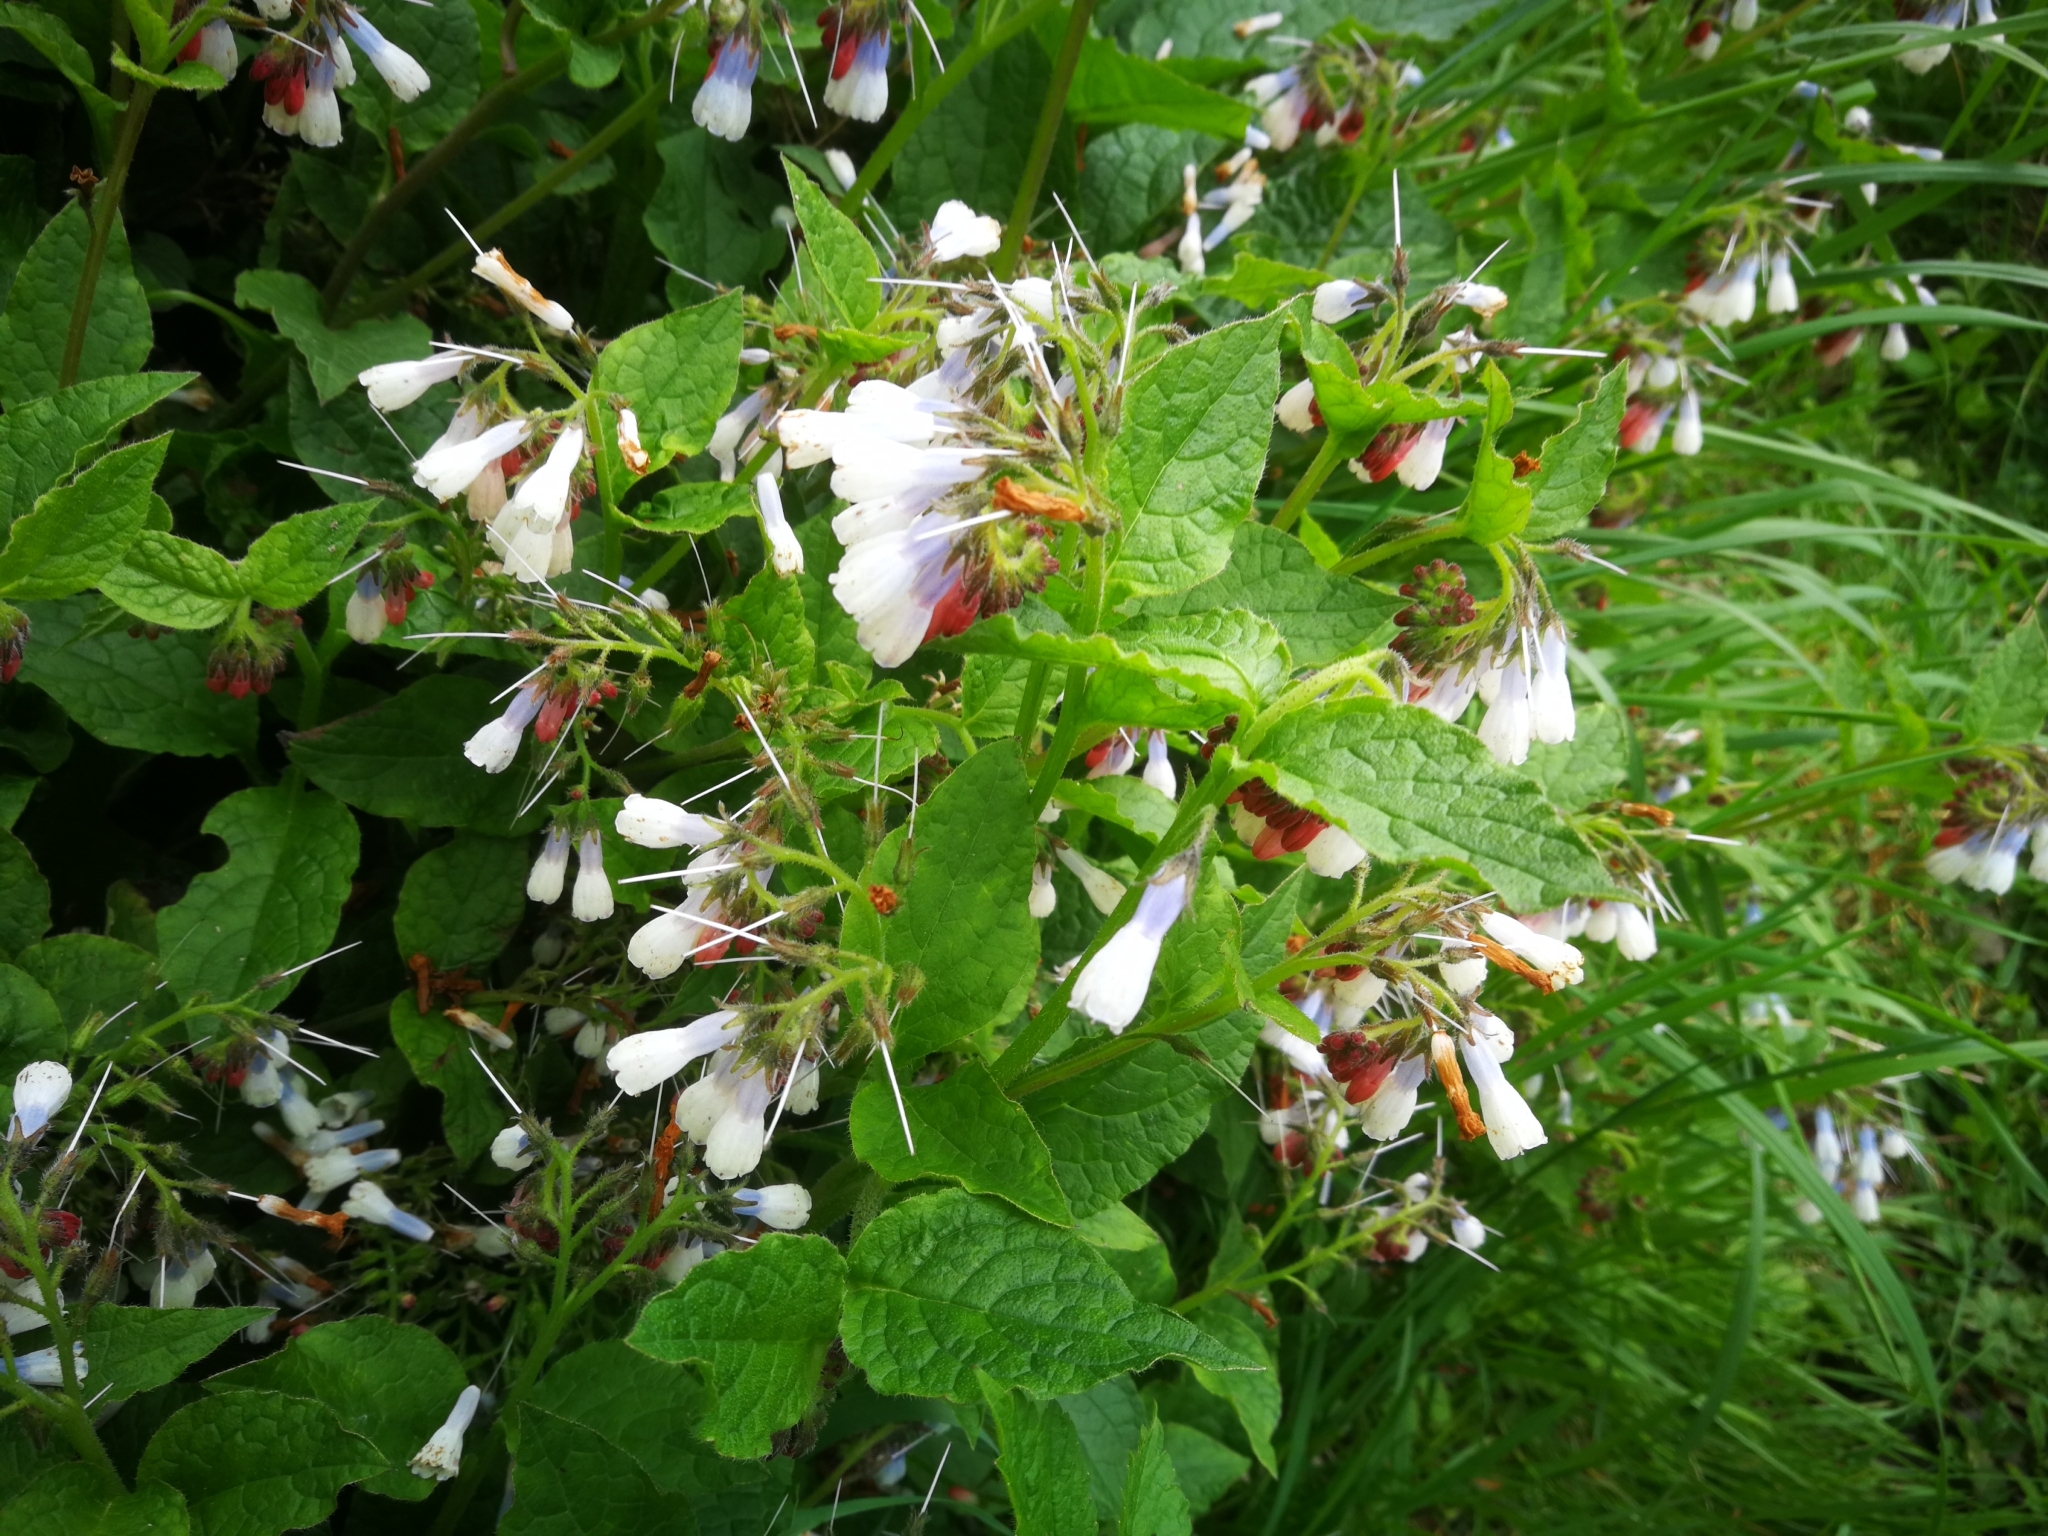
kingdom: Plantae
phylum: Tracheophyta
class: Magnoliopsida
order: Boraginales
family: Boraginaceae
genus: Symphytum
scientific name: Symphytum hidcotense
